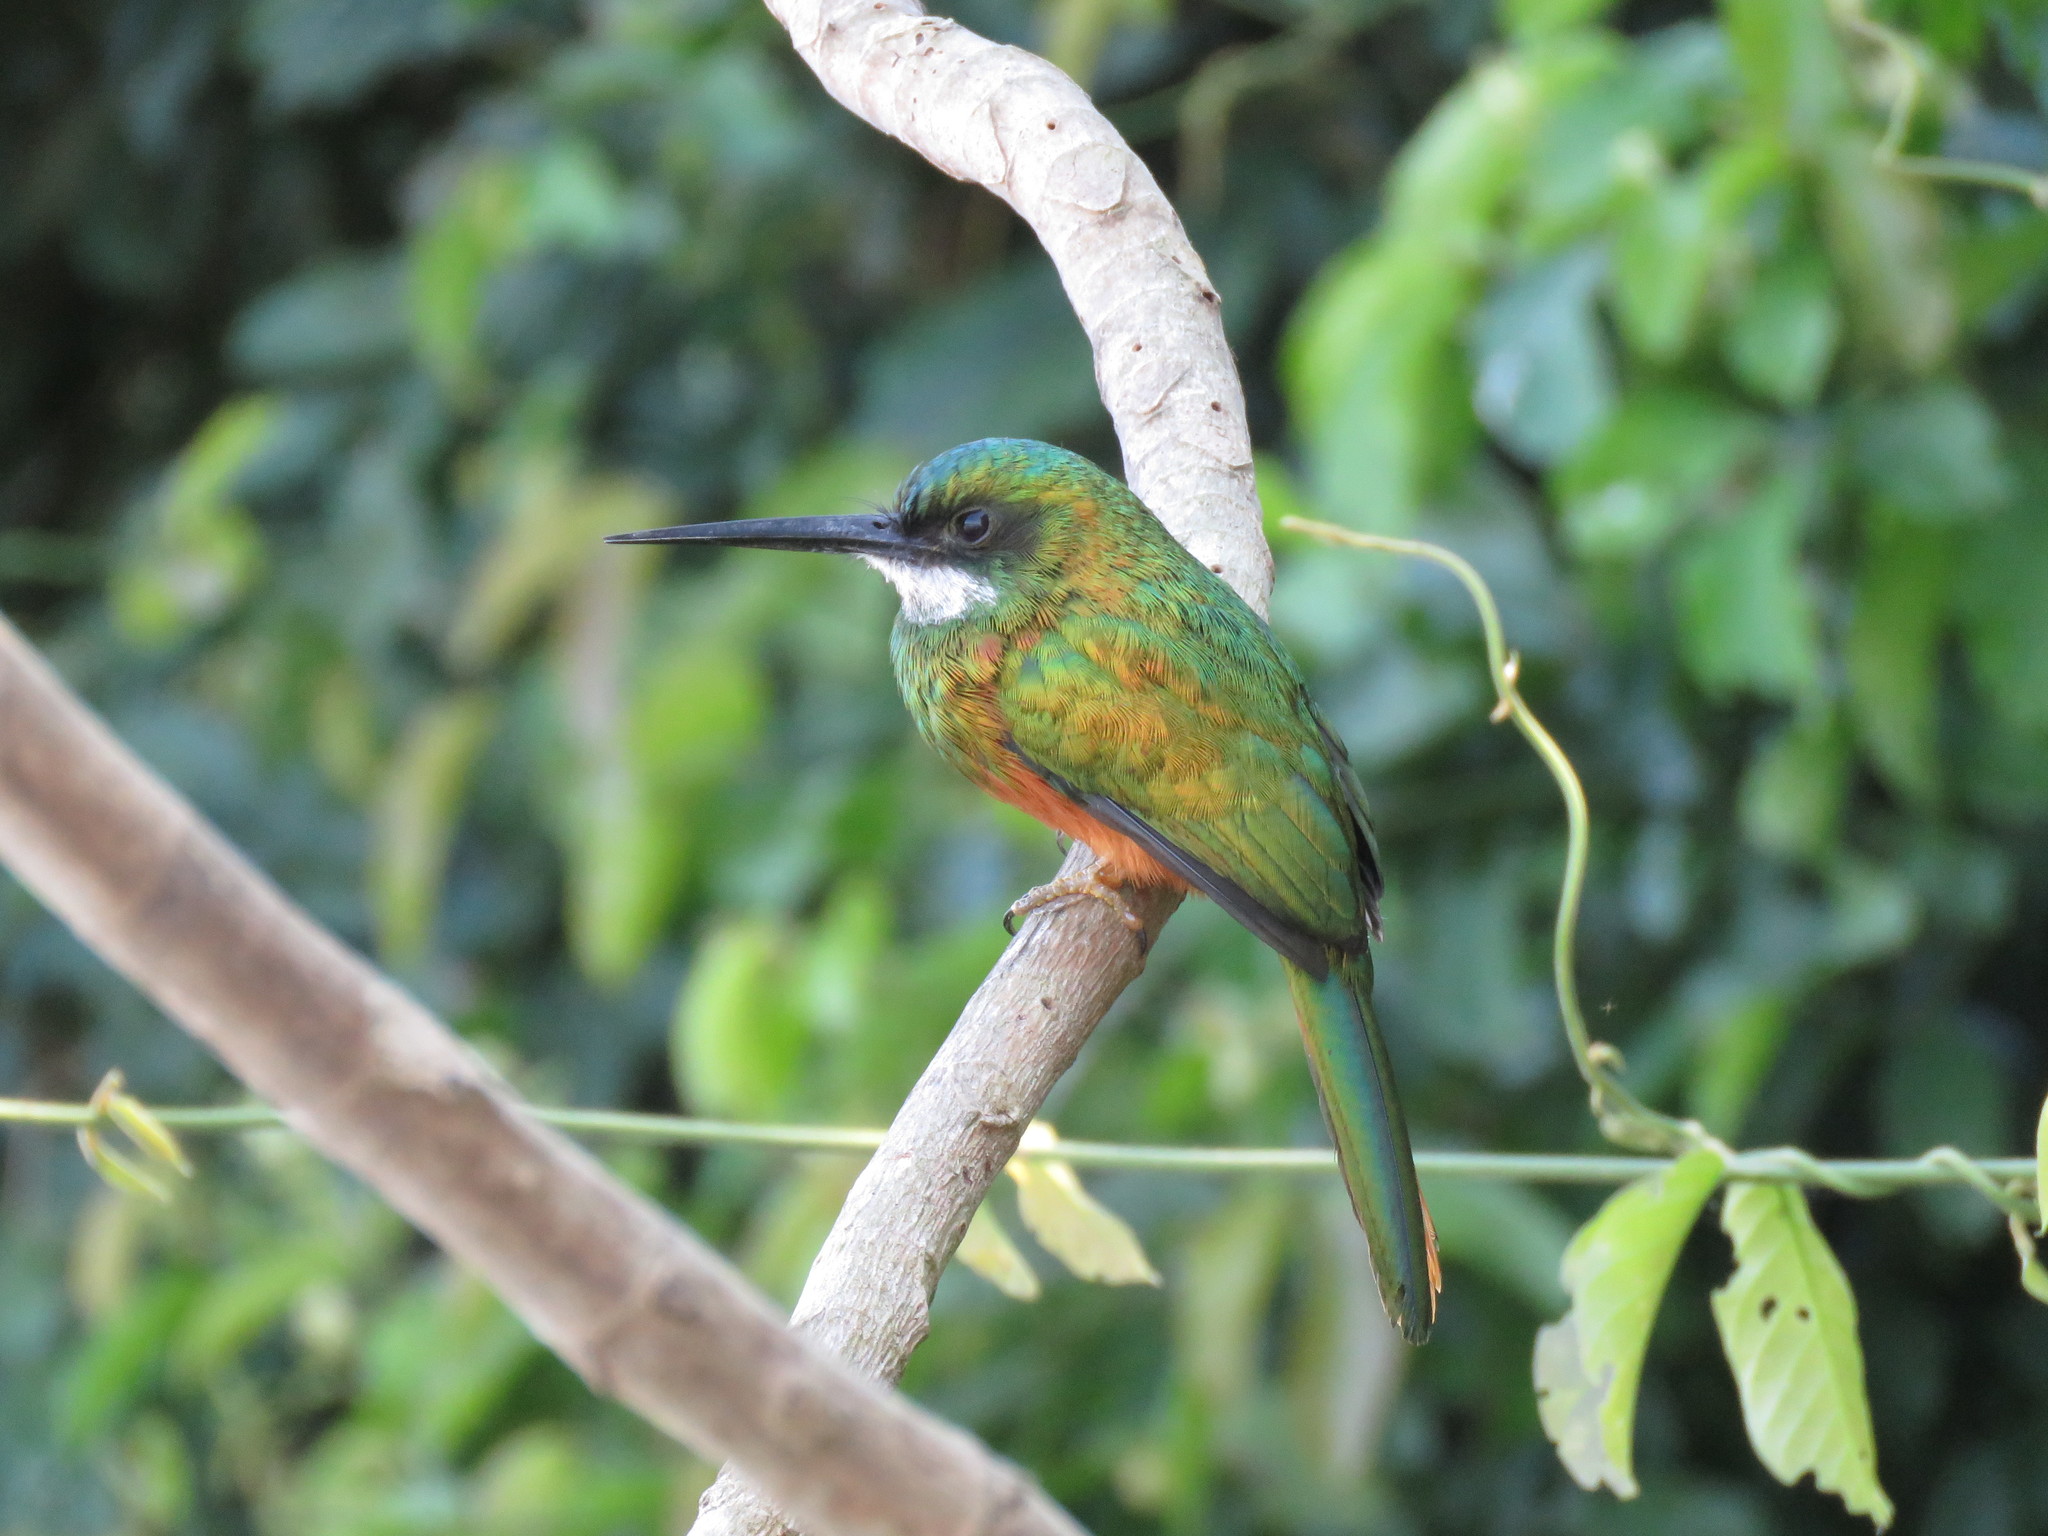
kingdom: Animalia
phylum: Chordata
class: Aves
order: Piciformes
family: Galbulidae
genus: Galbula
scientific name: Galbula ruficauda
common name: Rufous-tailed jacamar
